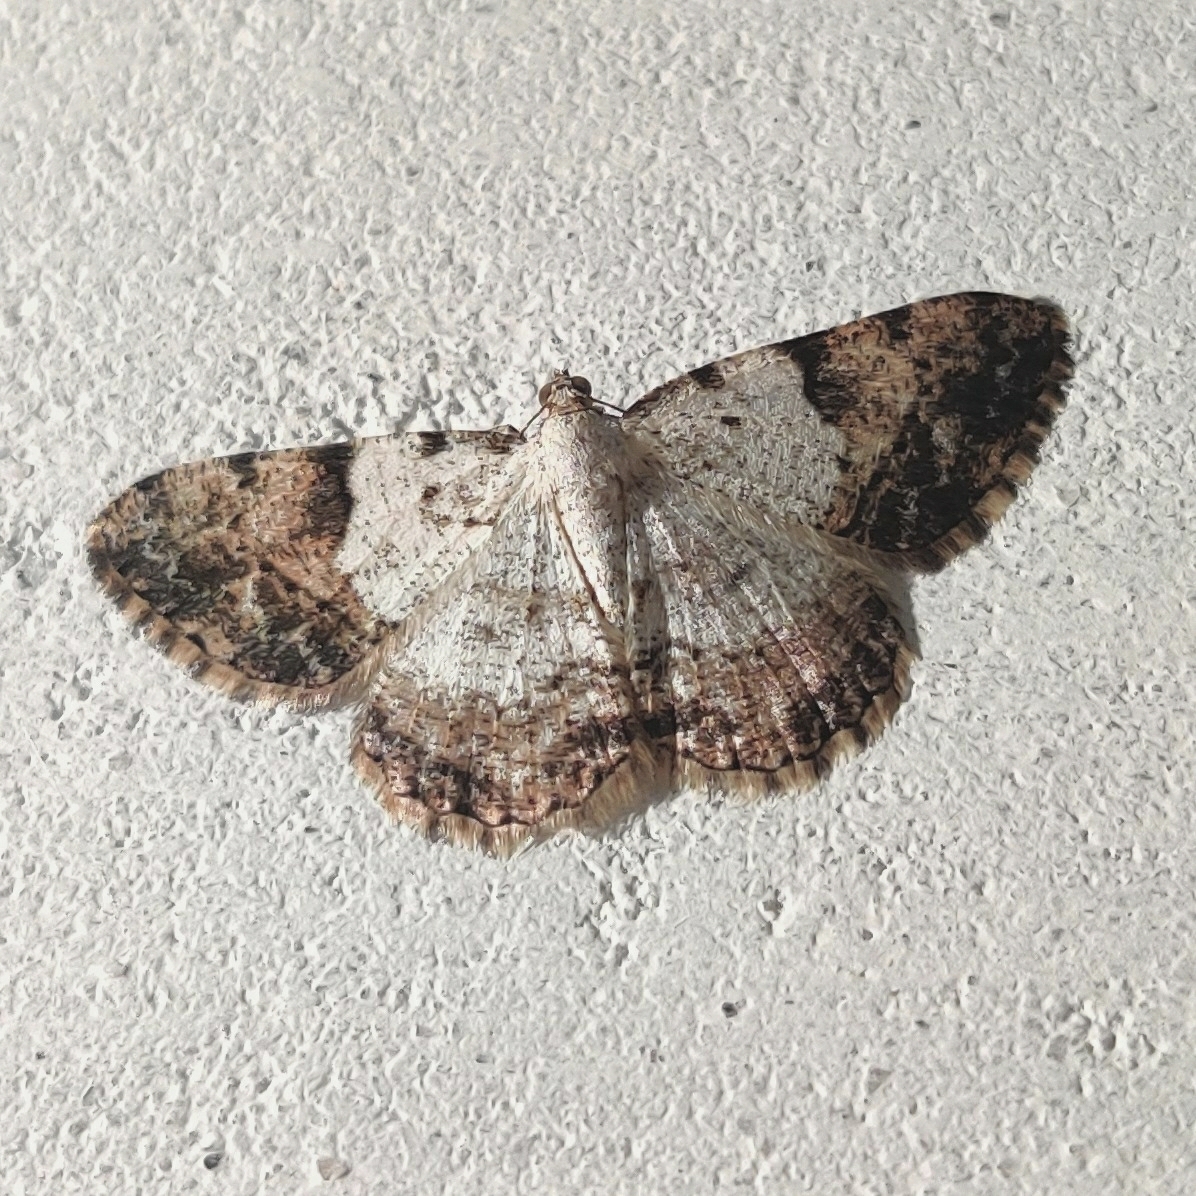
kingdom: Animalia
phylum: Arthropoda
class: Insecta
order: Lepidoptera
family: Geometridae
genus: Myrioblephara
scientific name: Myrioblephara albibasis
